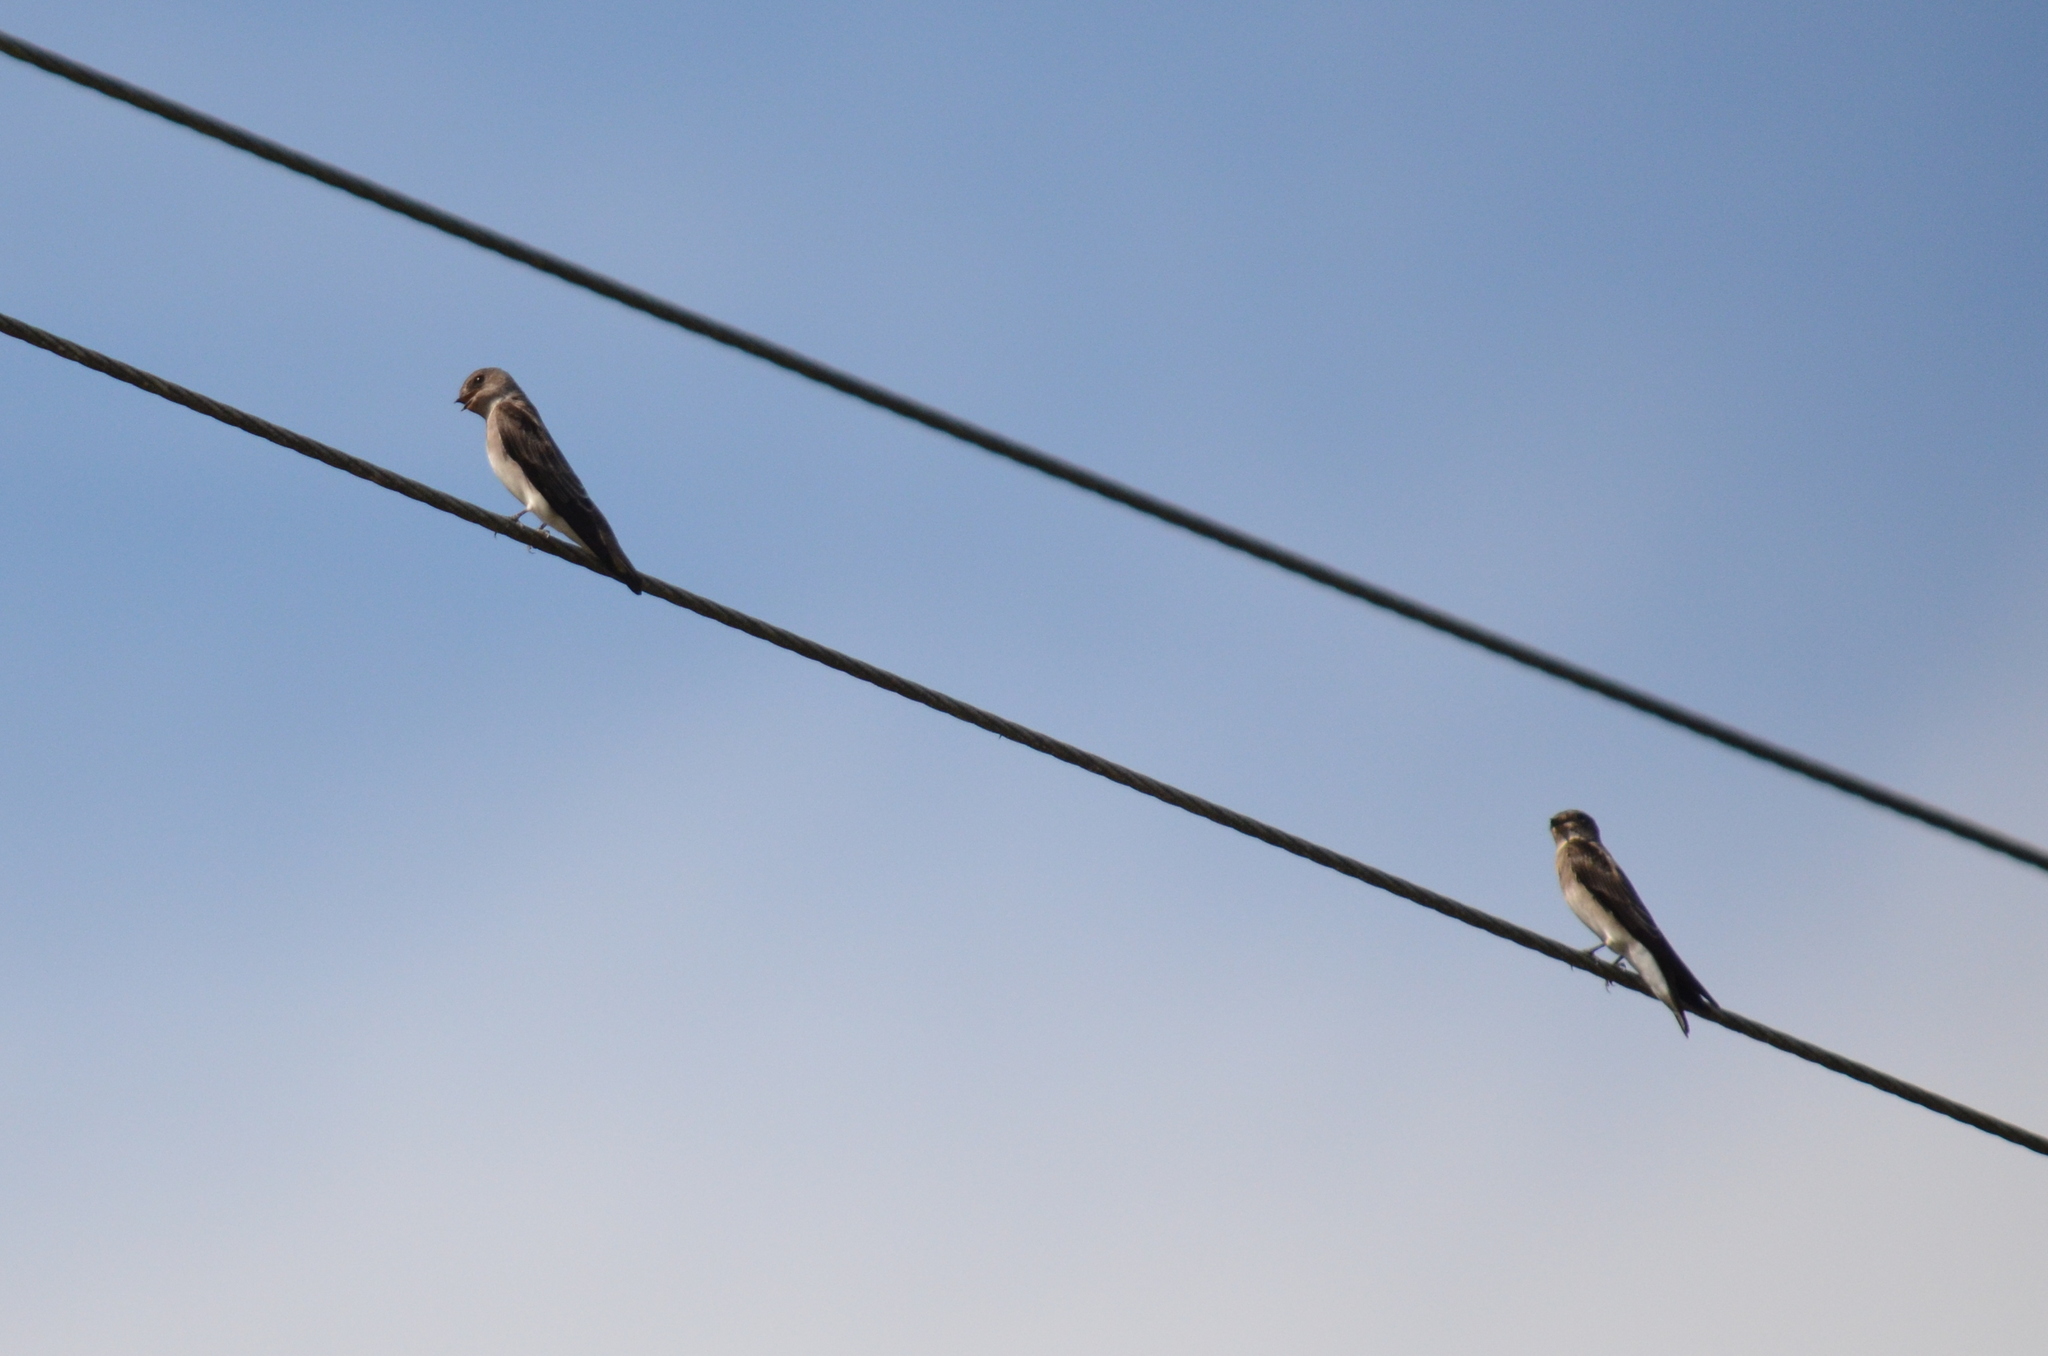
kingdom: Animalia
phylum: Chordata
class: Aves
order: Passeriformes
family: Hirundinidae
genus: Stelgidopteryx
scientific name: Stelgidopteryx serripennis
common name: Northern rough-winged swallow
